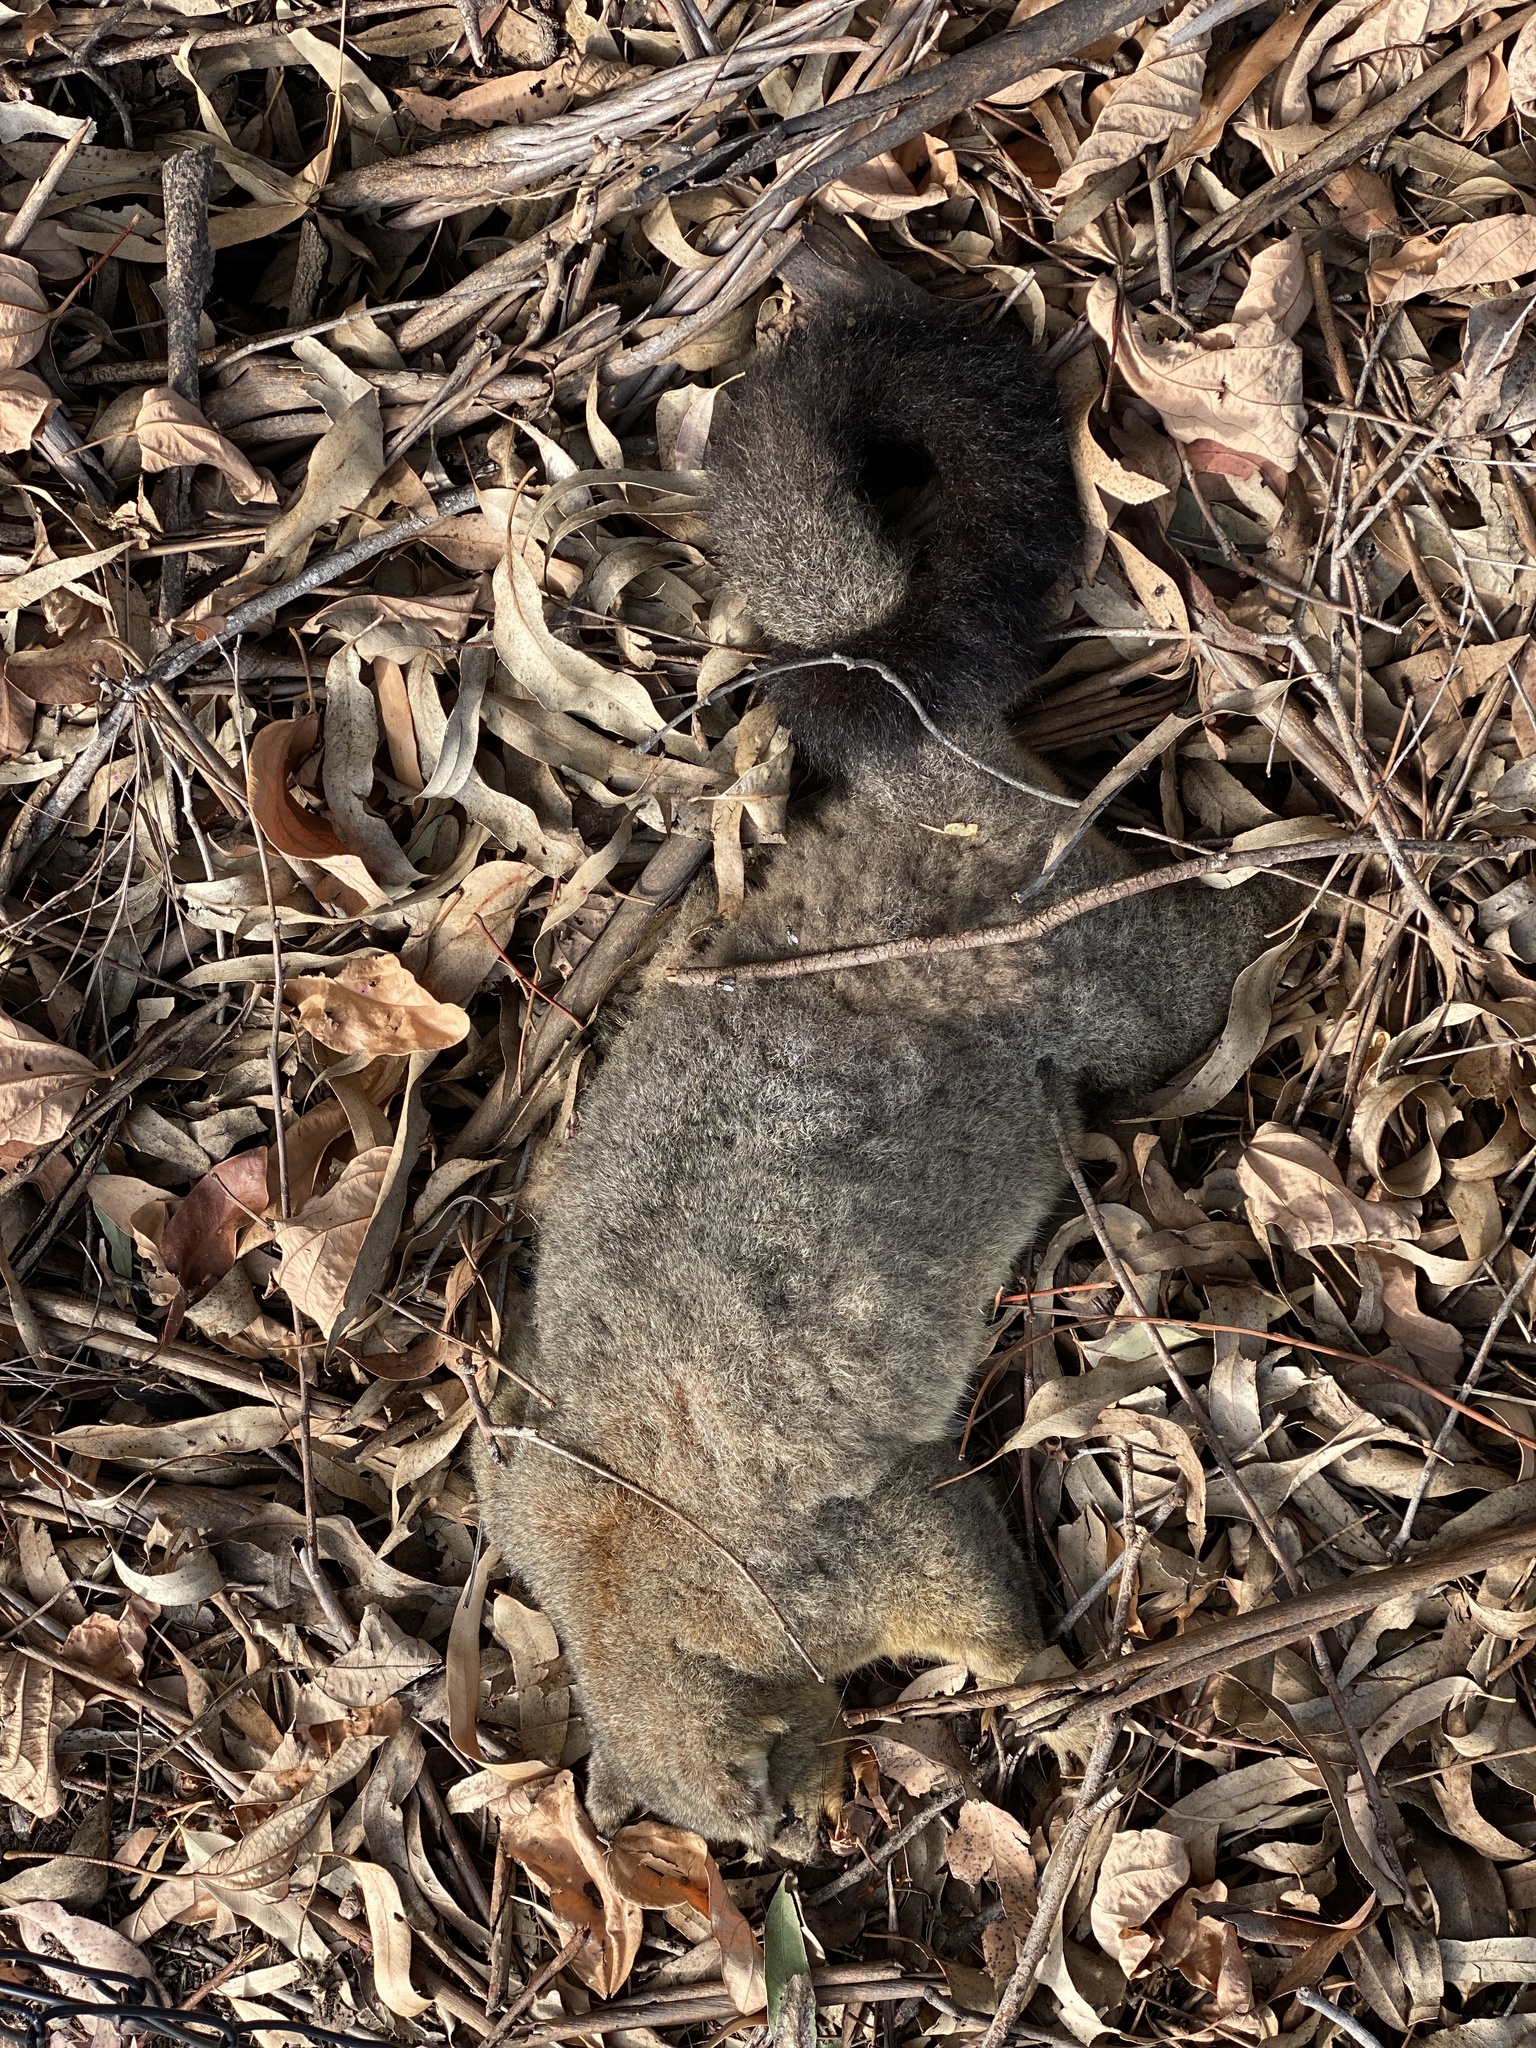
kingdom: Animalia
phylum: Chordata
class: Mammalia
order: Diprotodontia
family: Phalangeridae
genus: Trichosurus
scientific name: Trichosurus vulpecula
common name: Common brushtail
